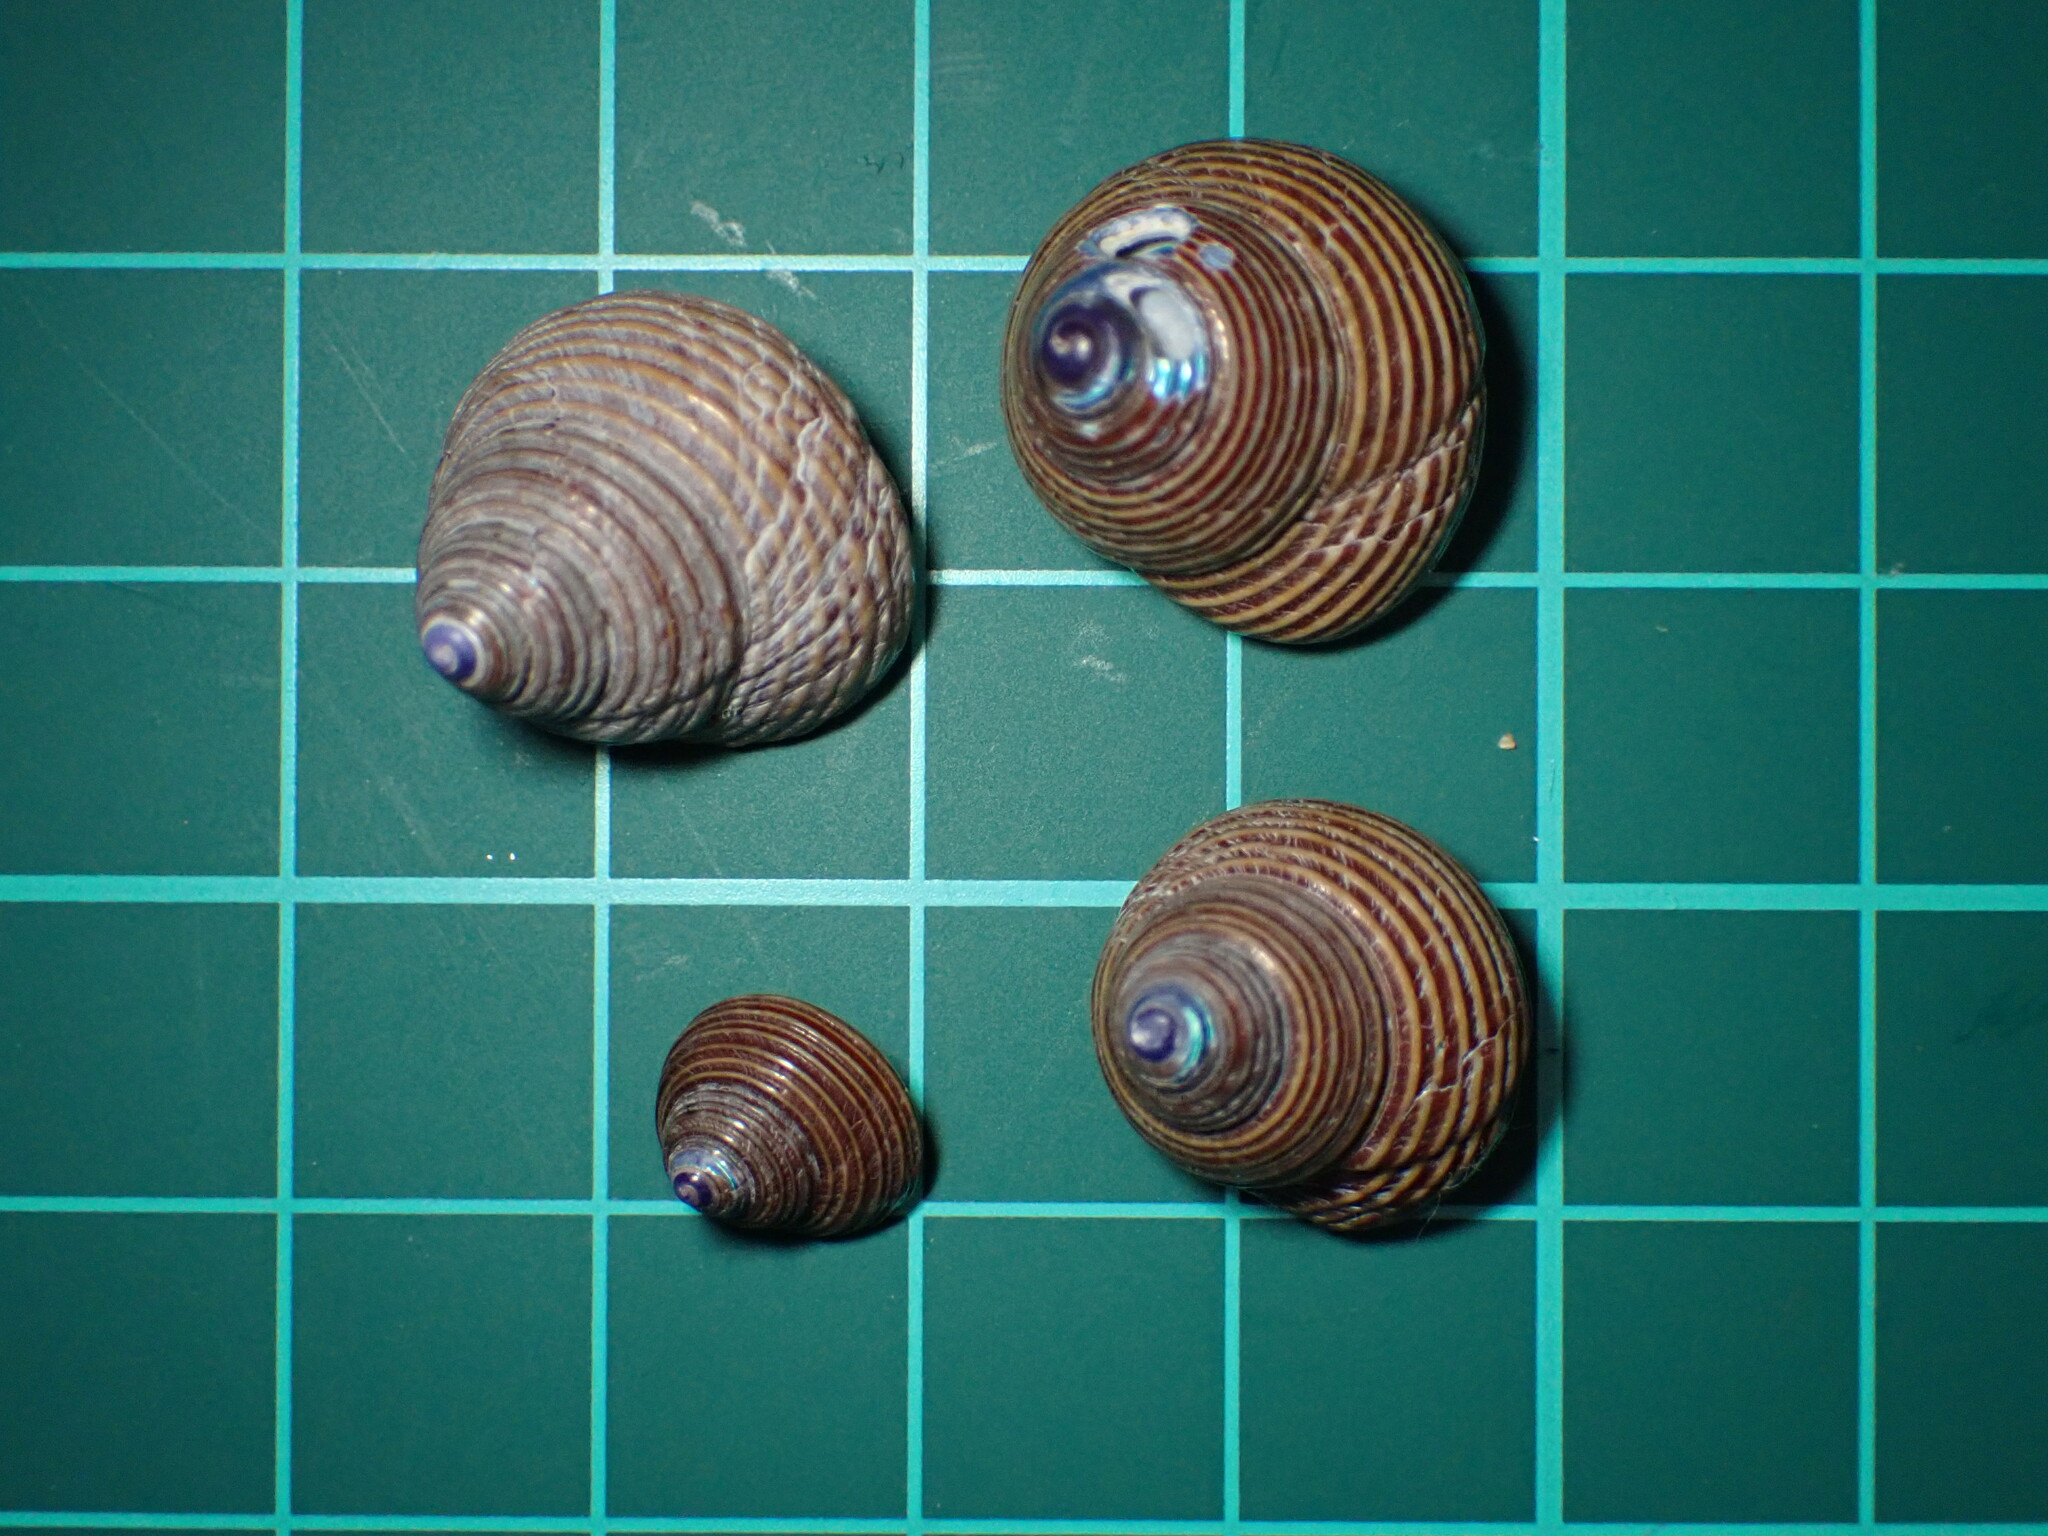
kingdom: Animalia
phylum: Mollusca
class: Gastropoda
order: Trochida
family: Calliostomatidae
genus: Calliostoma
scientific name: Calliostoma ligatum
